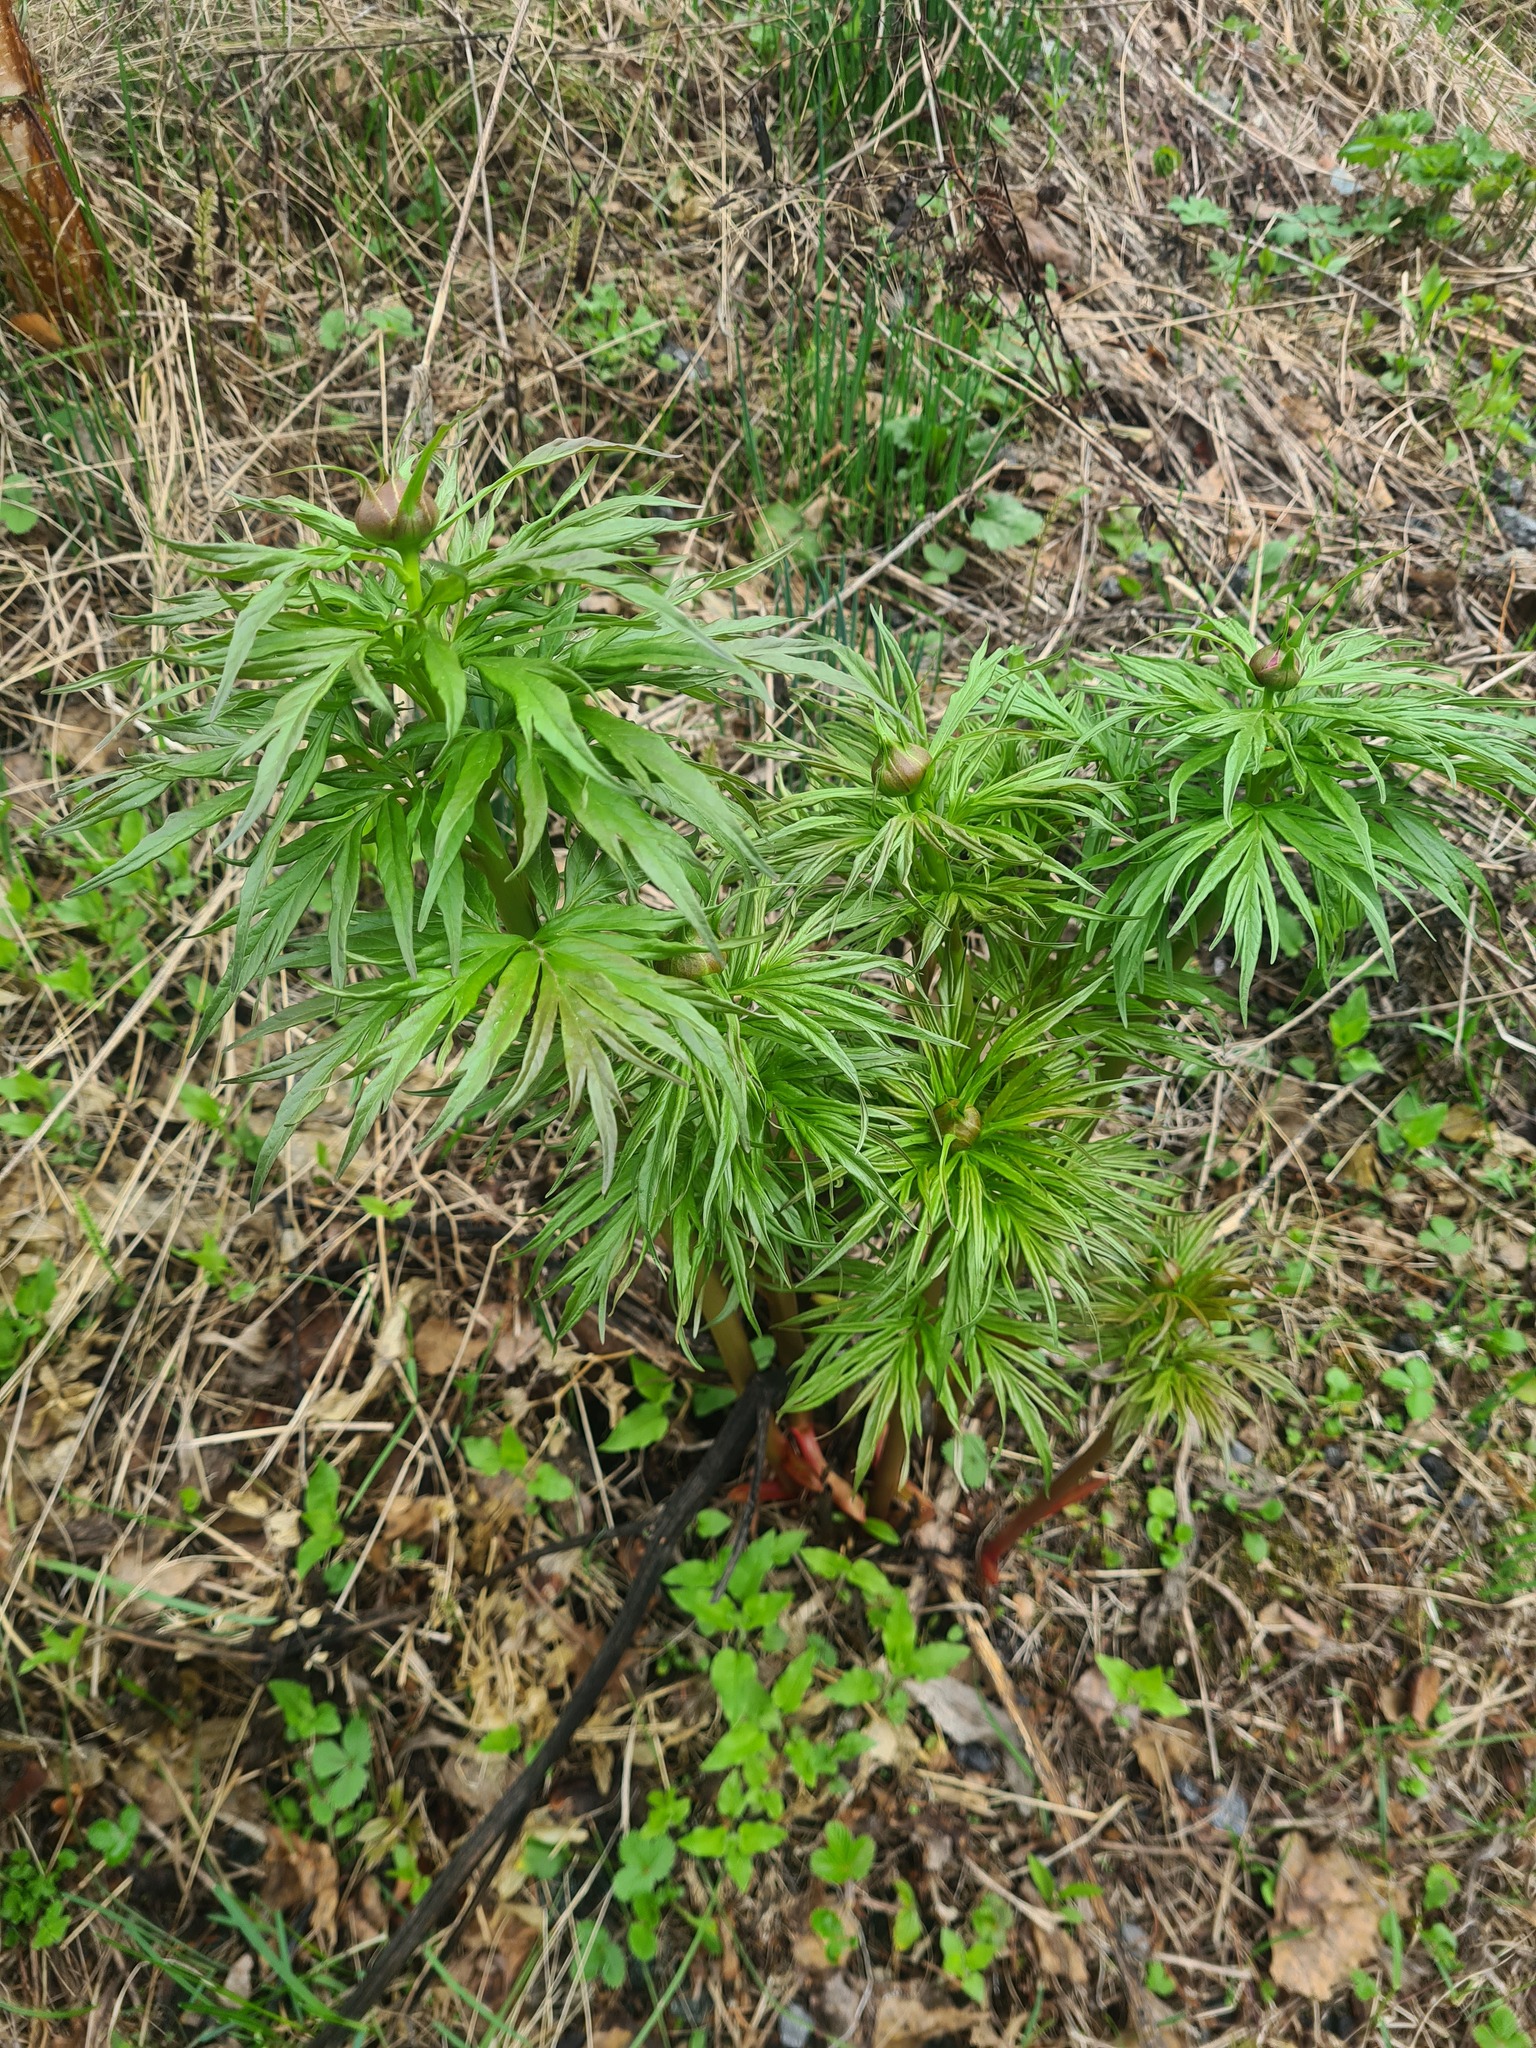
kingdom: Plantae
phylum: Tracheophyta
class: Magnoliopsida
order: Saxifragales
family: Paeoniaceae
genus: Paeonia
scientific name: Paeonia anomala
